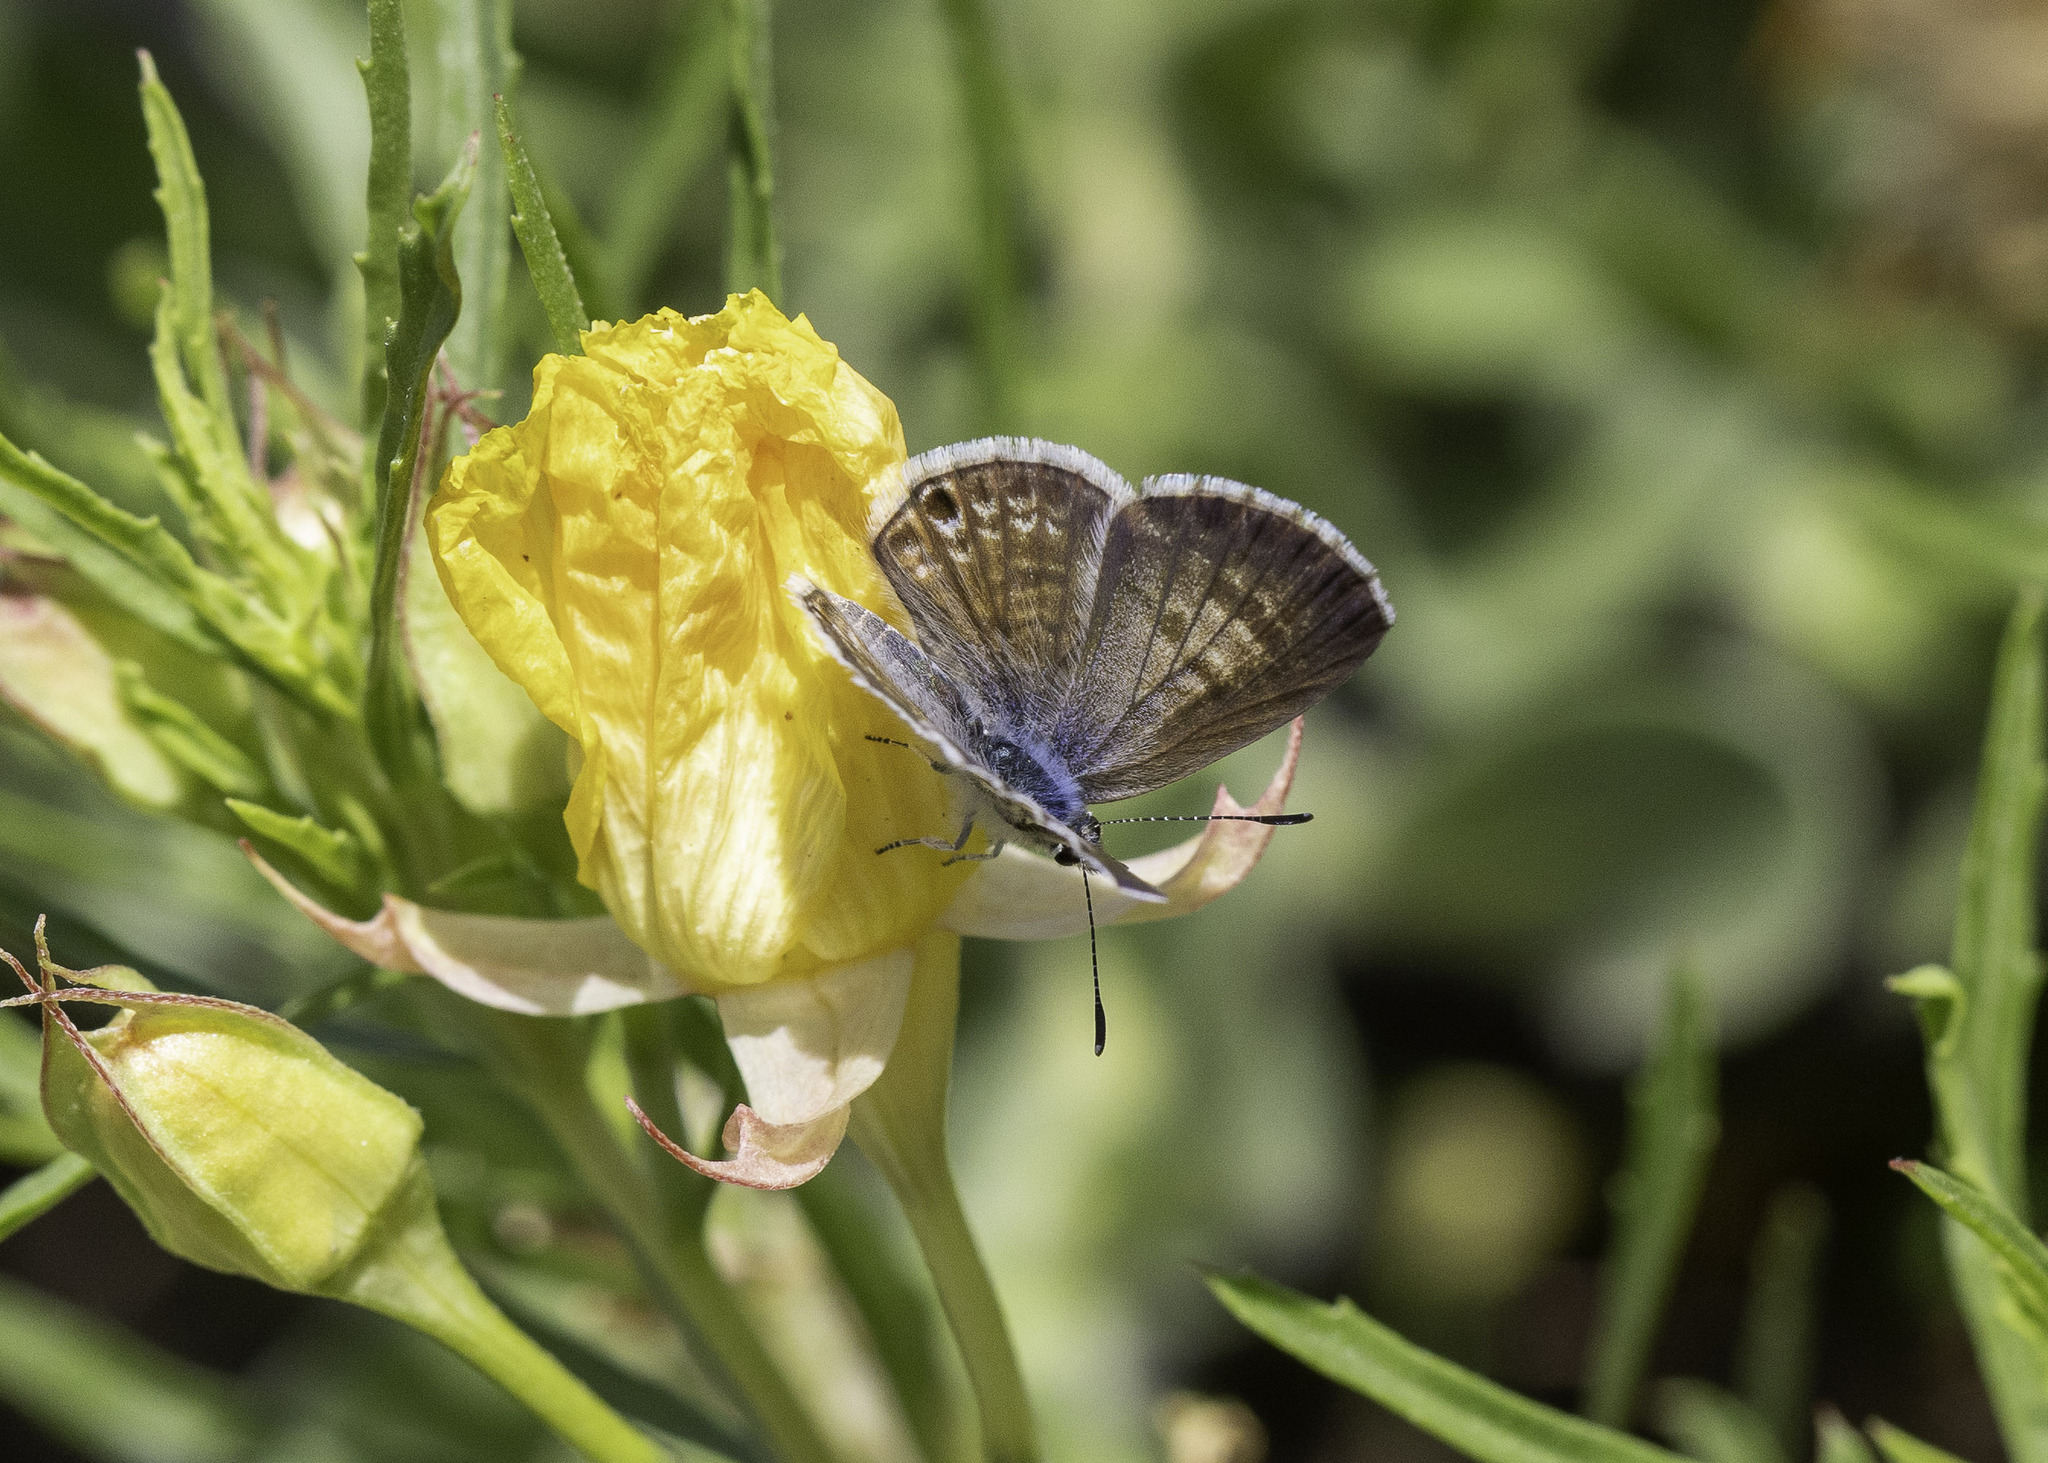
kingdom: Animalia
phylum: Arthropoda
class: Insecta
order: Lepidoptera
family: Lycaenidae
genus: Leptotes
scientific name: Leptotes marina
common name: Marine blue
